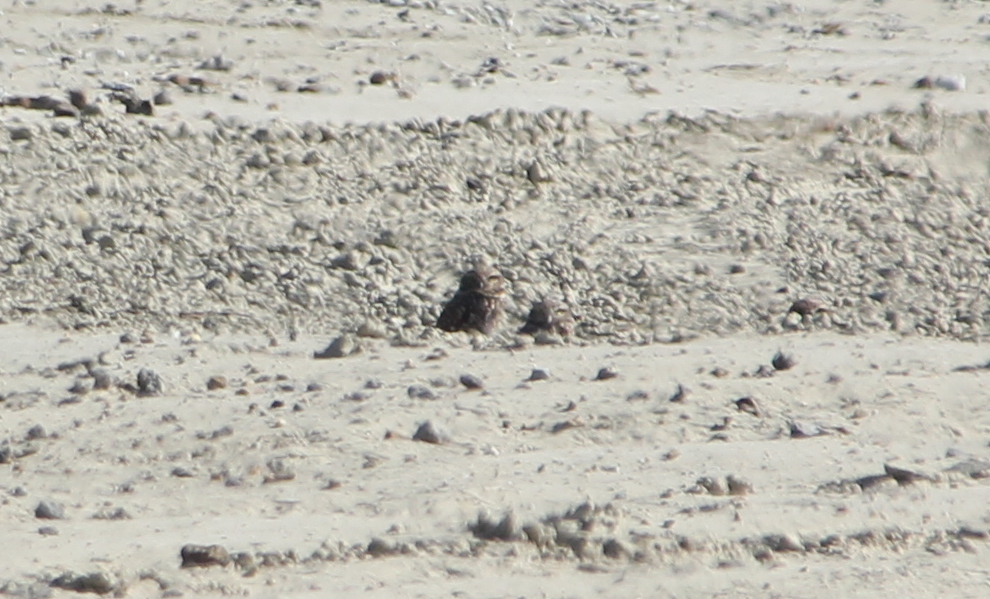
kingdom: Animalia
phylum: Chordata
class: Aves
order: Strigiformes
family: Strigidae
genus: Athene
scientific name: Athene cunicularia
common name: Burrowing owl
